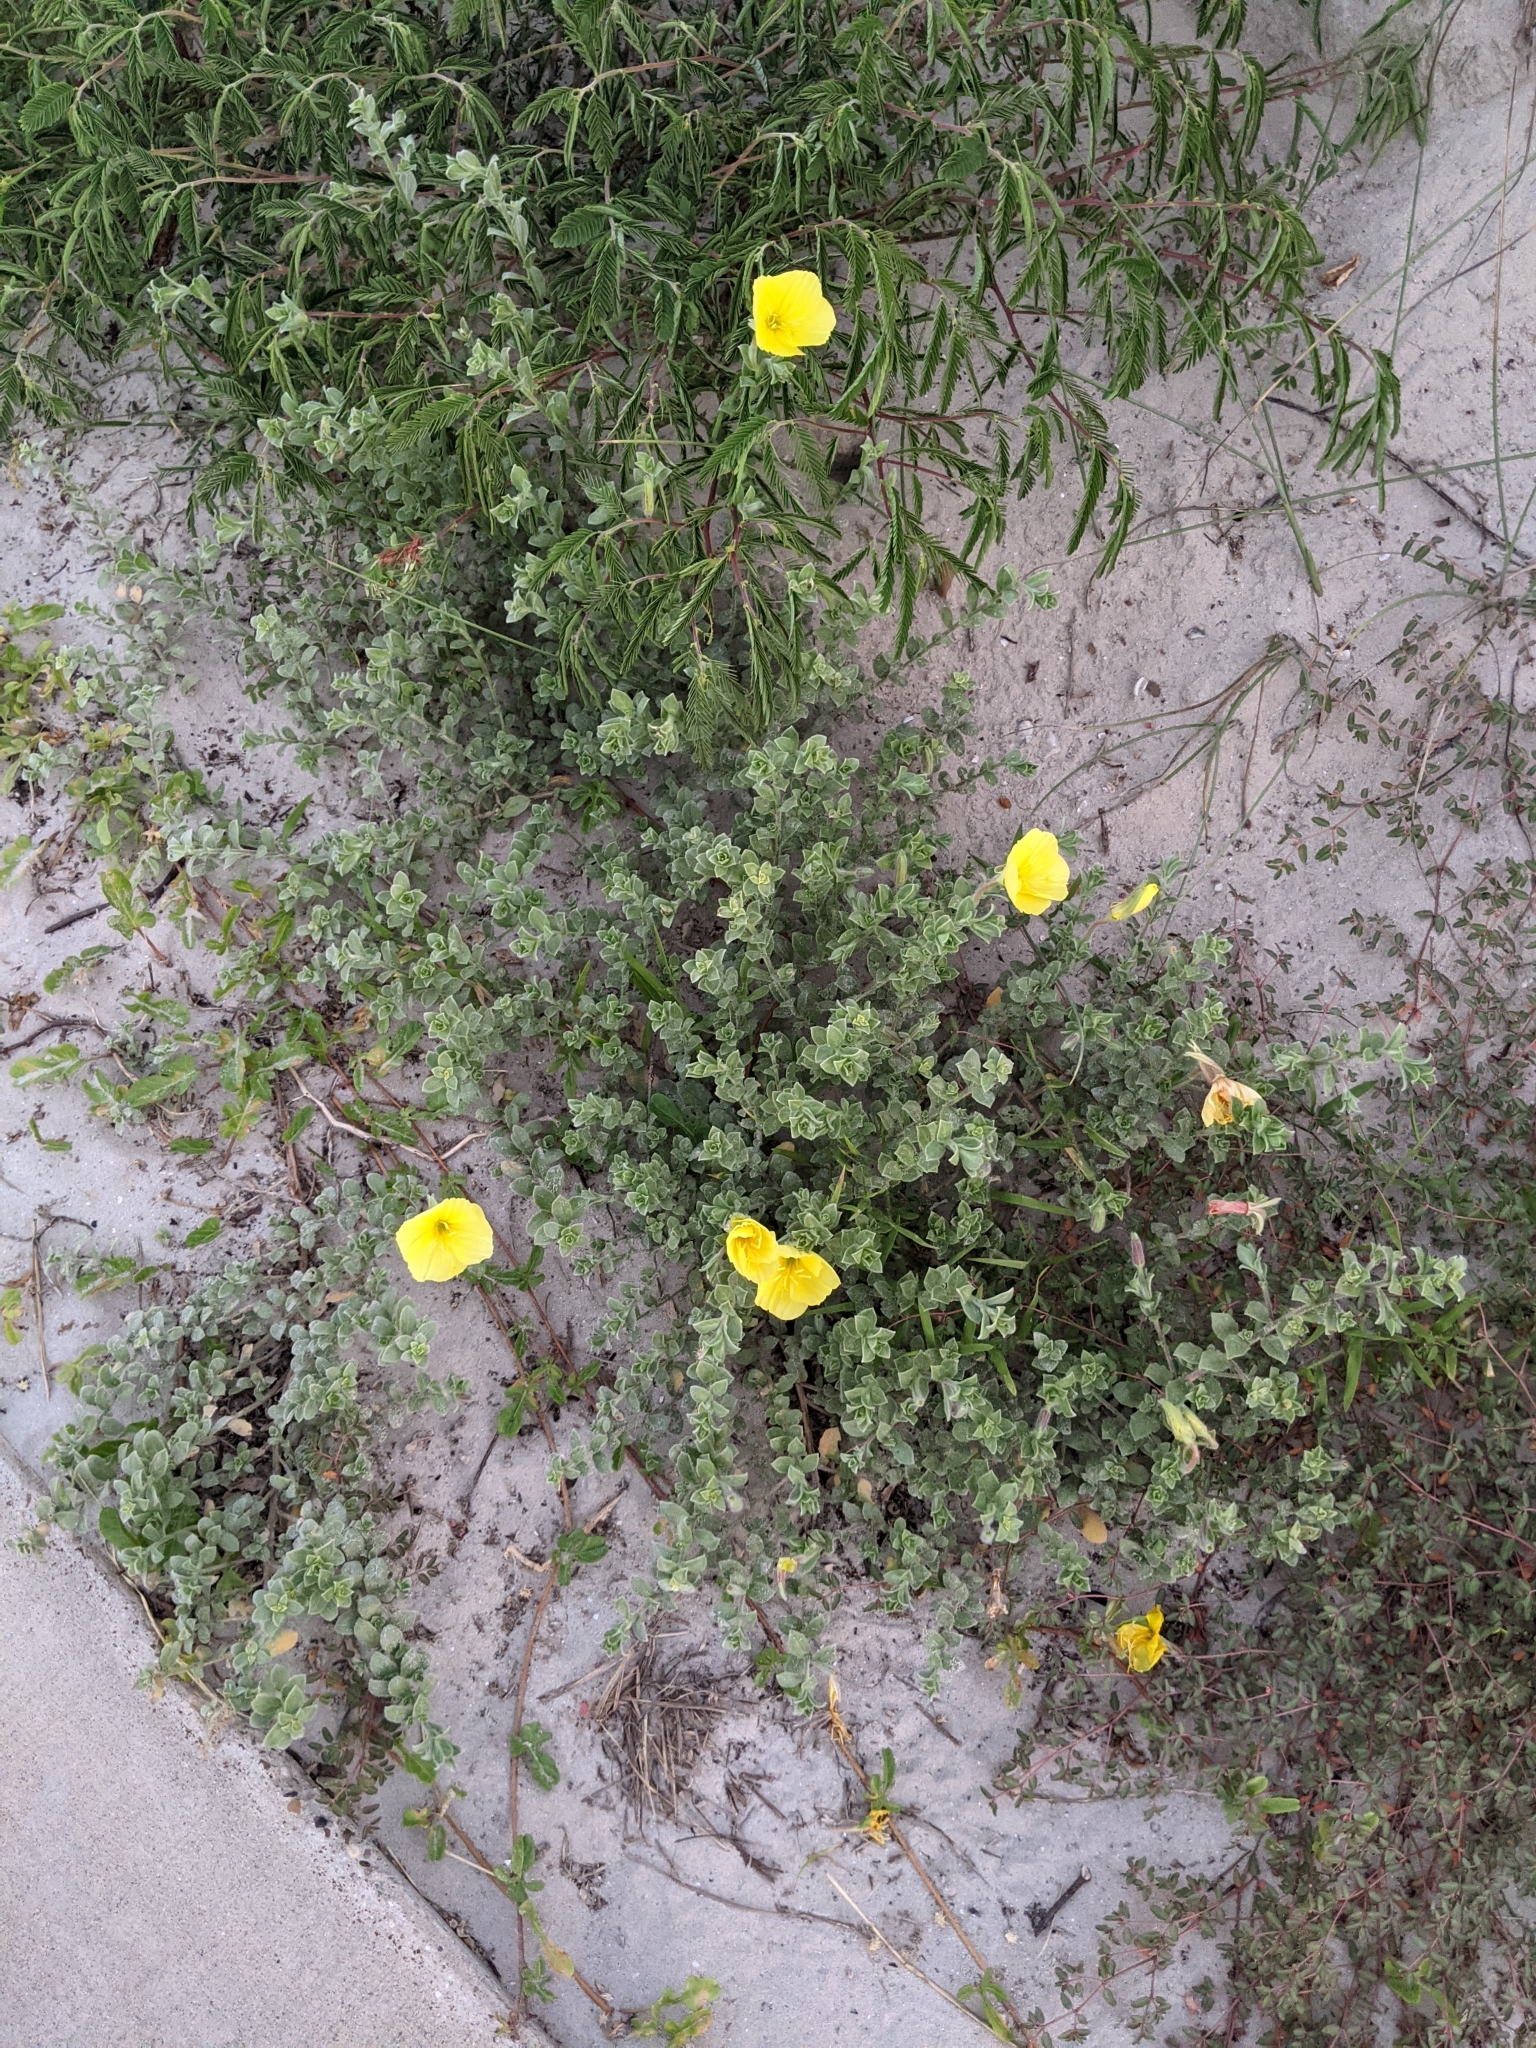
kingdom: Plantae
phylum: Tracheophyta
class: Magnoliopsida
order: Myrtales
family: Onagraceae
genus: Oenothera
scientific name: Oenothera drummondii
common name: Beach evening-primrose
